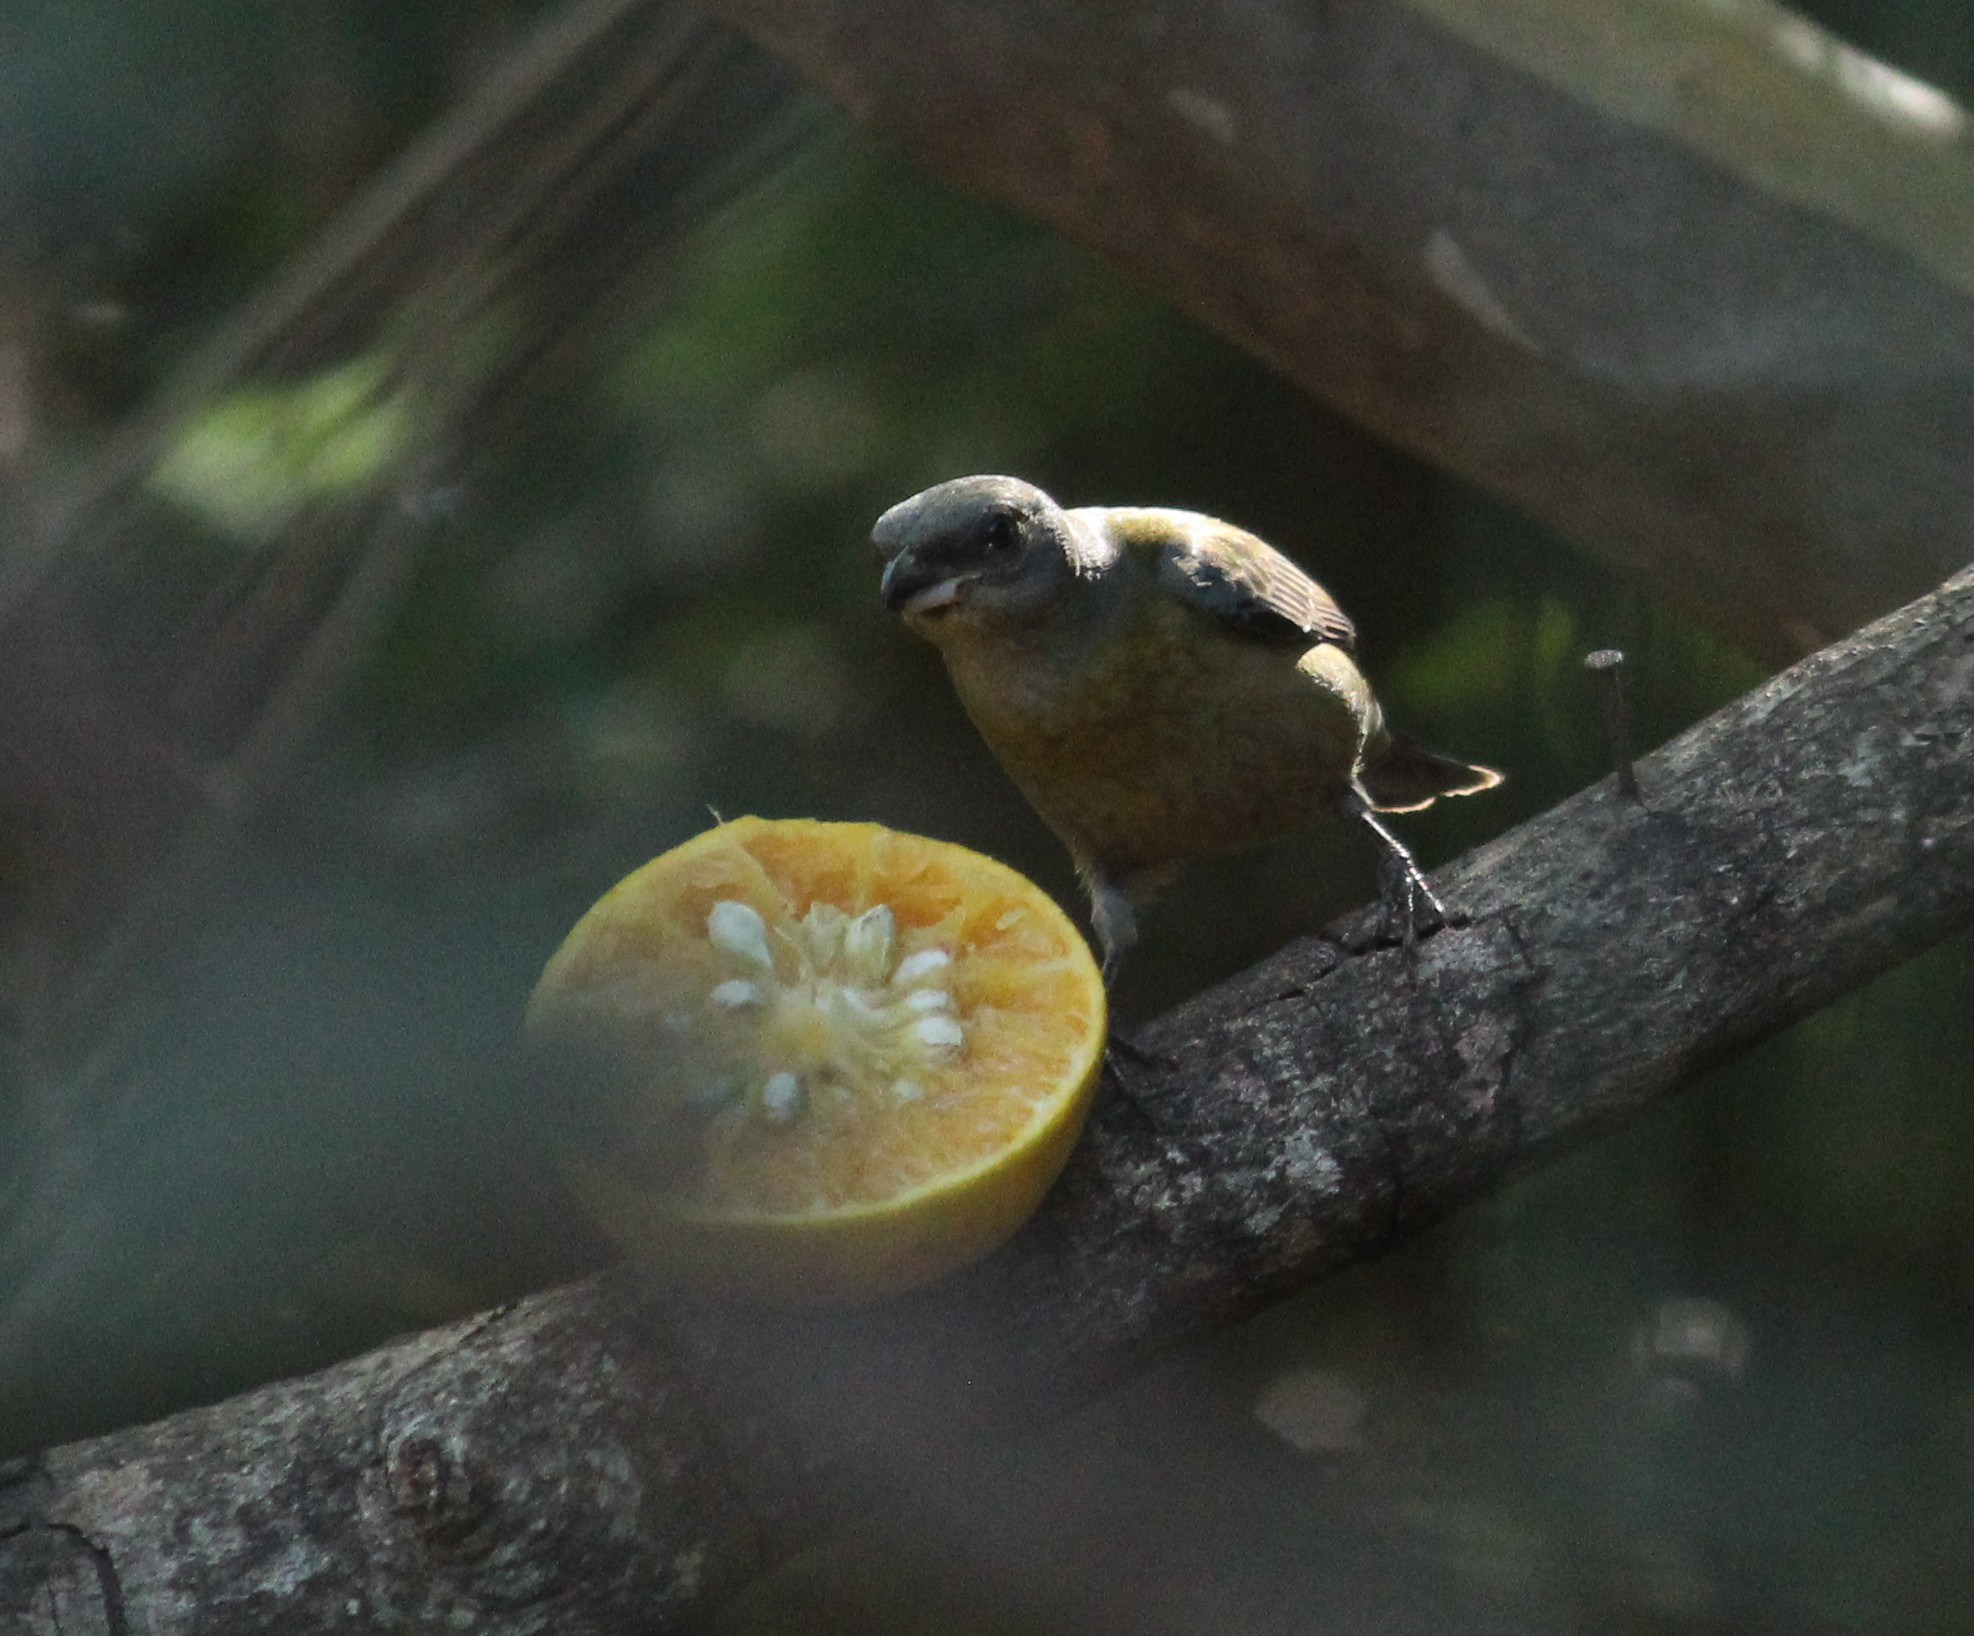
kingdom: Animalia
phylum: Chordata
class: Aves
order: Passeriformes
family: Thraupidae
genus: Rauenia
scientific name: Rauenia bonariensis
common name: Blue-and-yellow tanager
